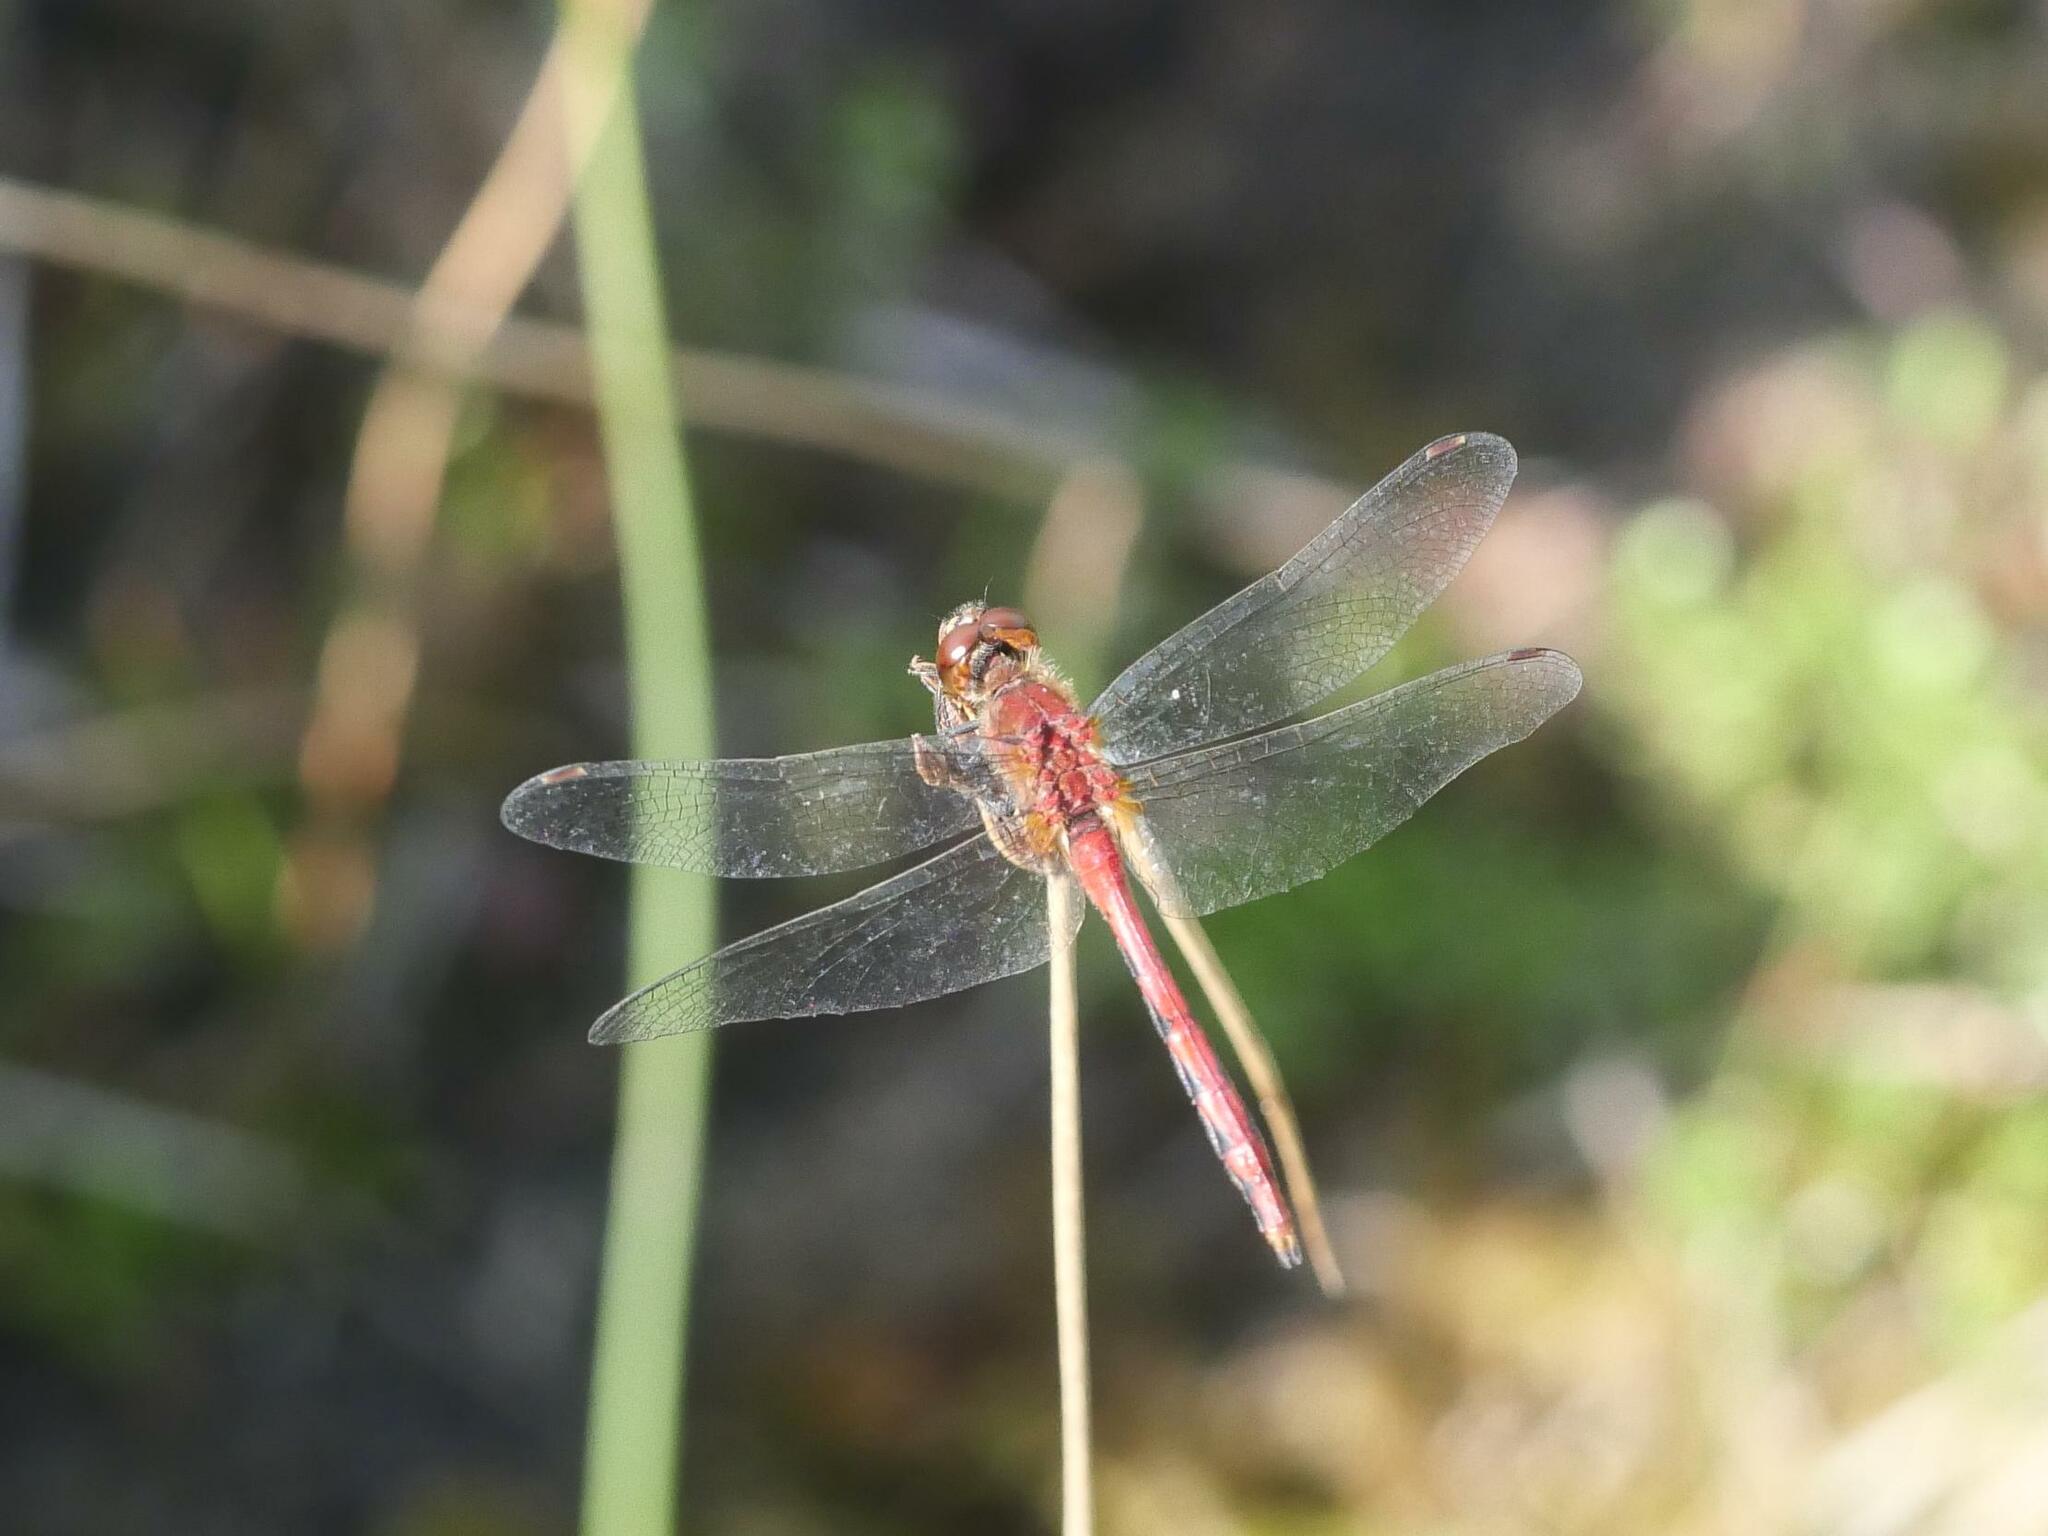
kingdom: Animalia
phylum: Arthropoda
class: Insecta
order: Odonata
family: Libellulidae
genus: Sympetrum
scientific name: Sympetrum internum
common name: Cherry-faced meadowhawk
